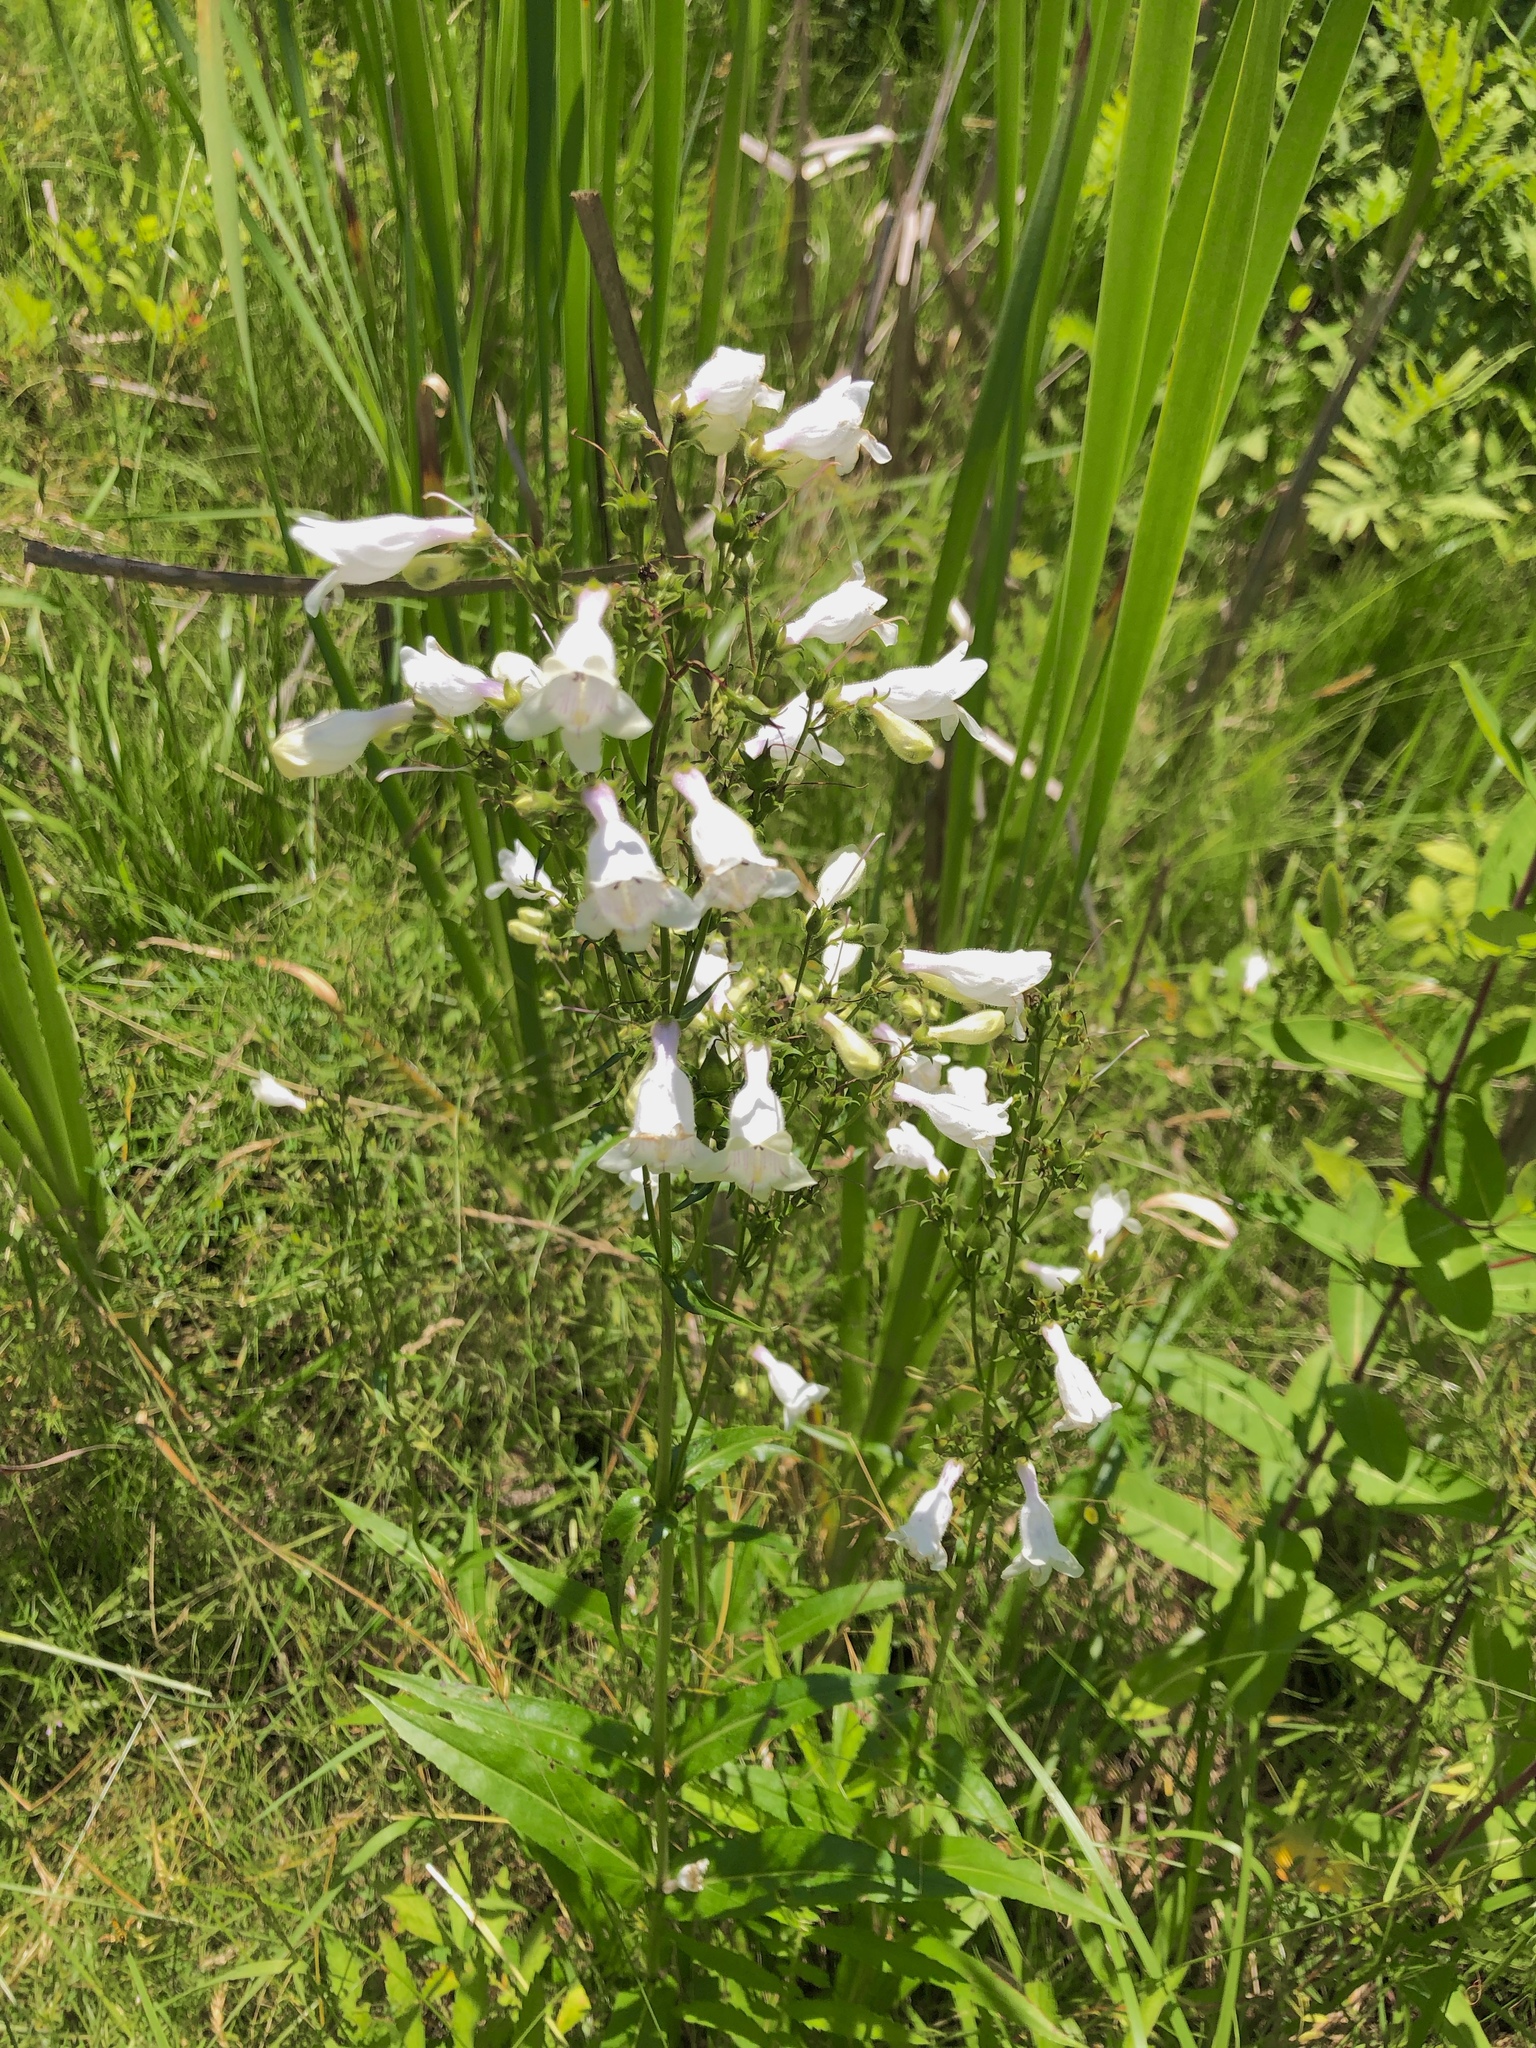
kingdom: Plantae
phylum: Tracheophyta
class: Magnoliopsida
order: Lamiales
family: Plantaginaceae
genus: Penstemon
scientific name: Penstemon digitalis
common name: Foxglove beardtongue
